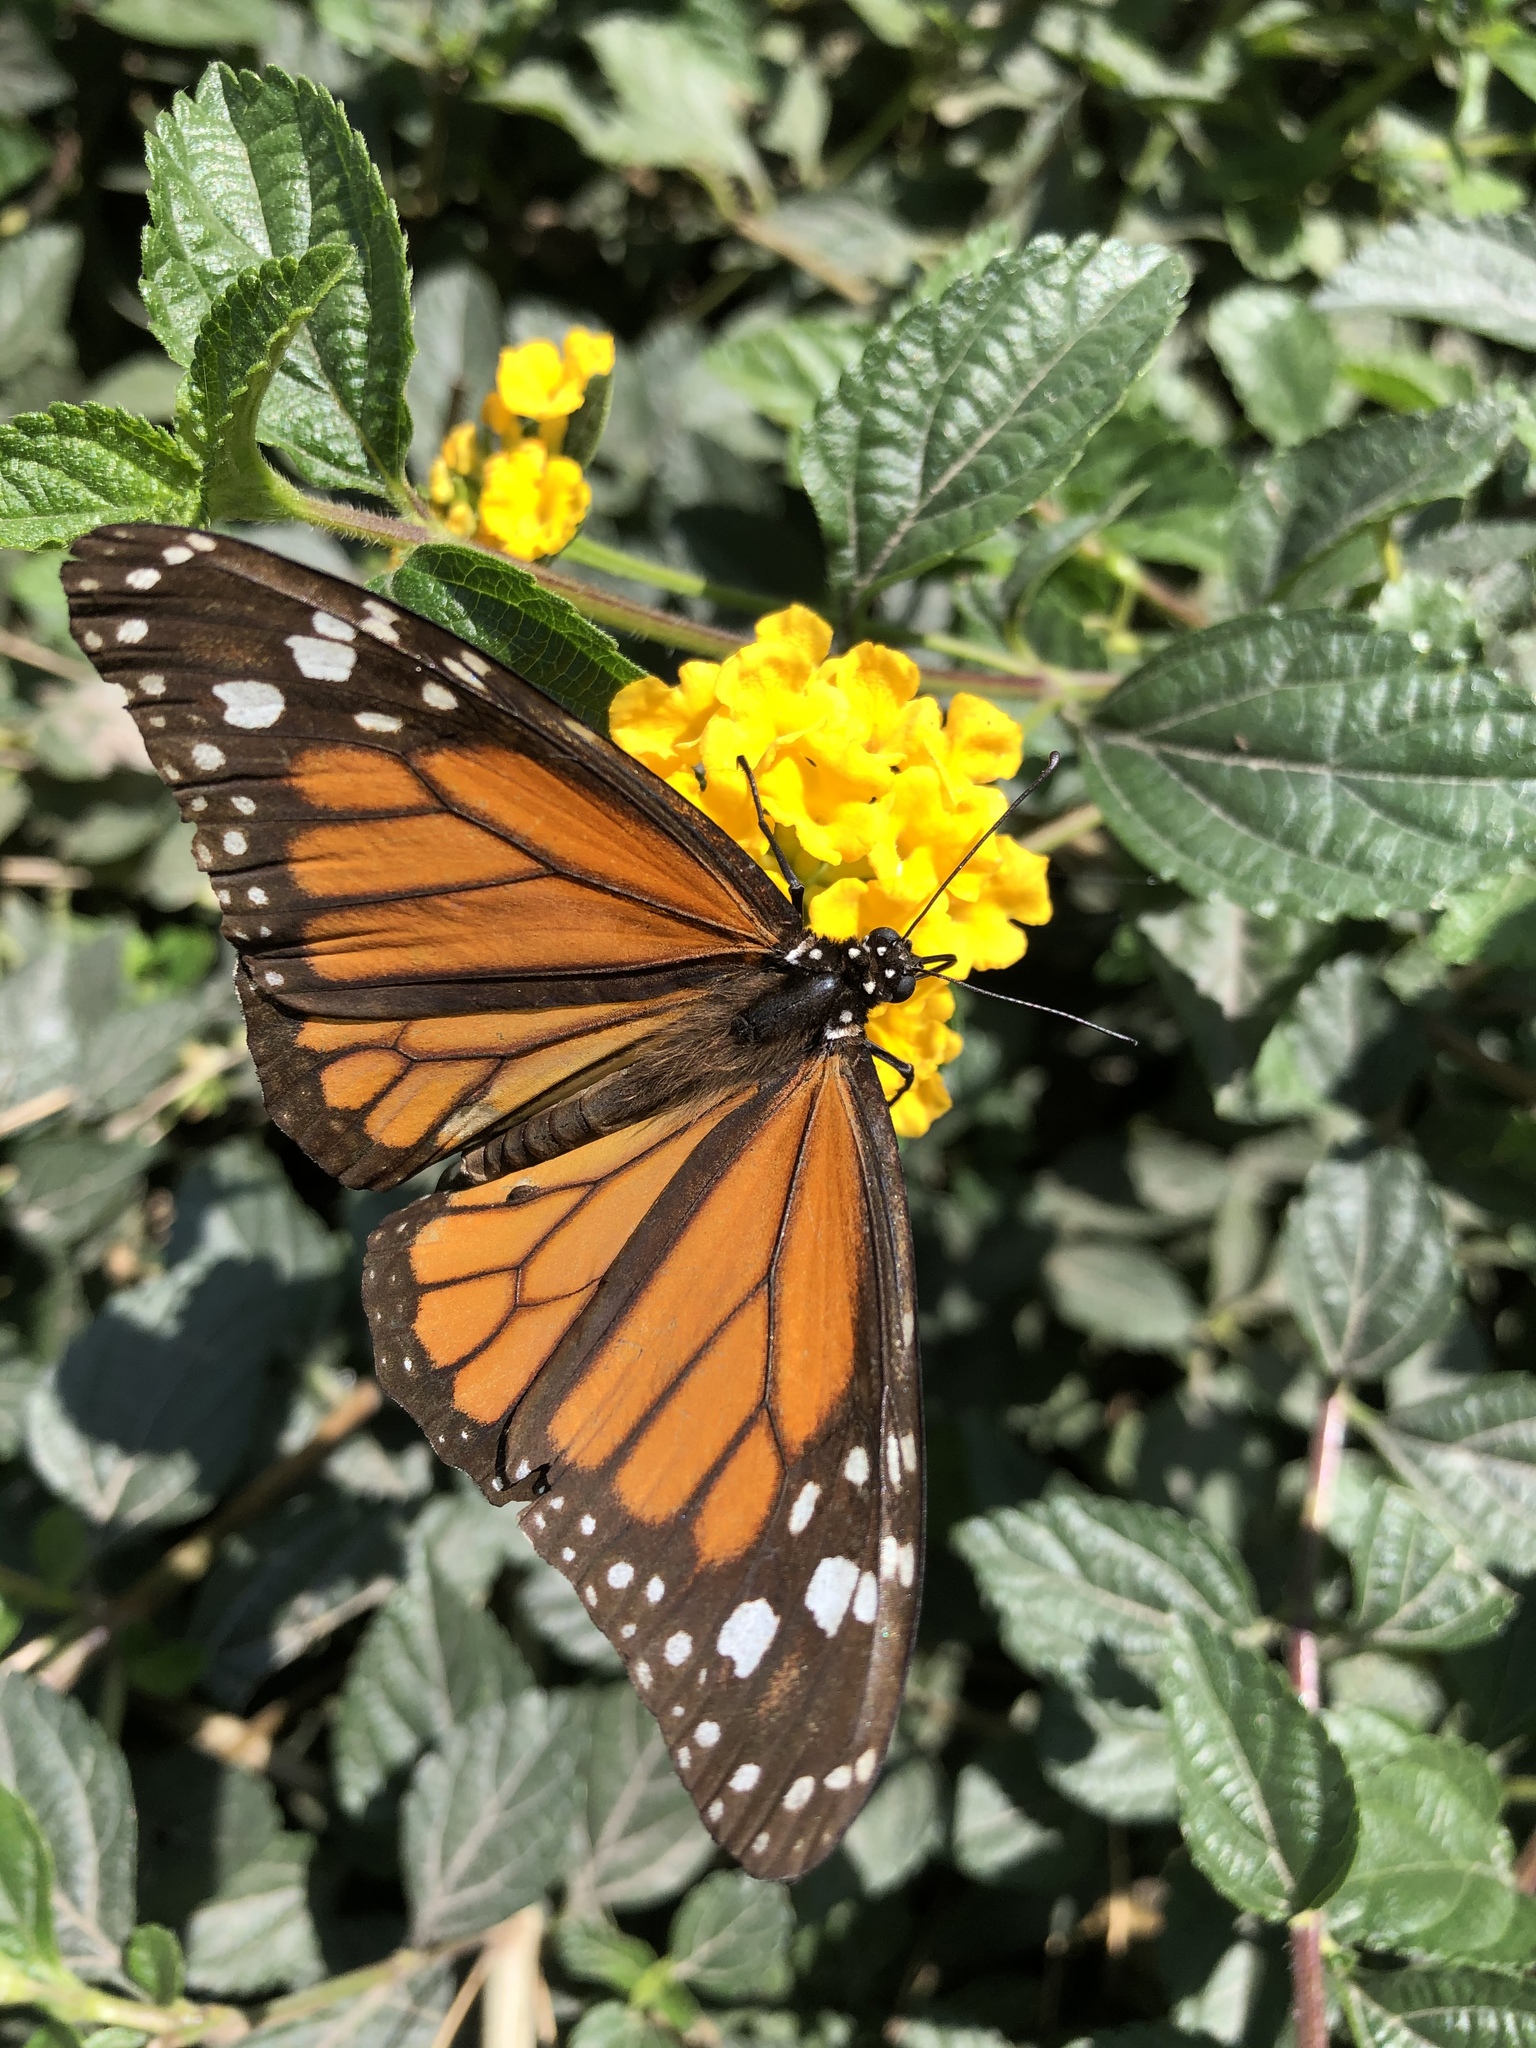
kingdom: Animalia
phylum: Arthropoda
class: Insecta
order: Lepidoptera
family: Nymphalidae
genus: Danaus
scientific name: Danaus plexippus
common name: Monarch
